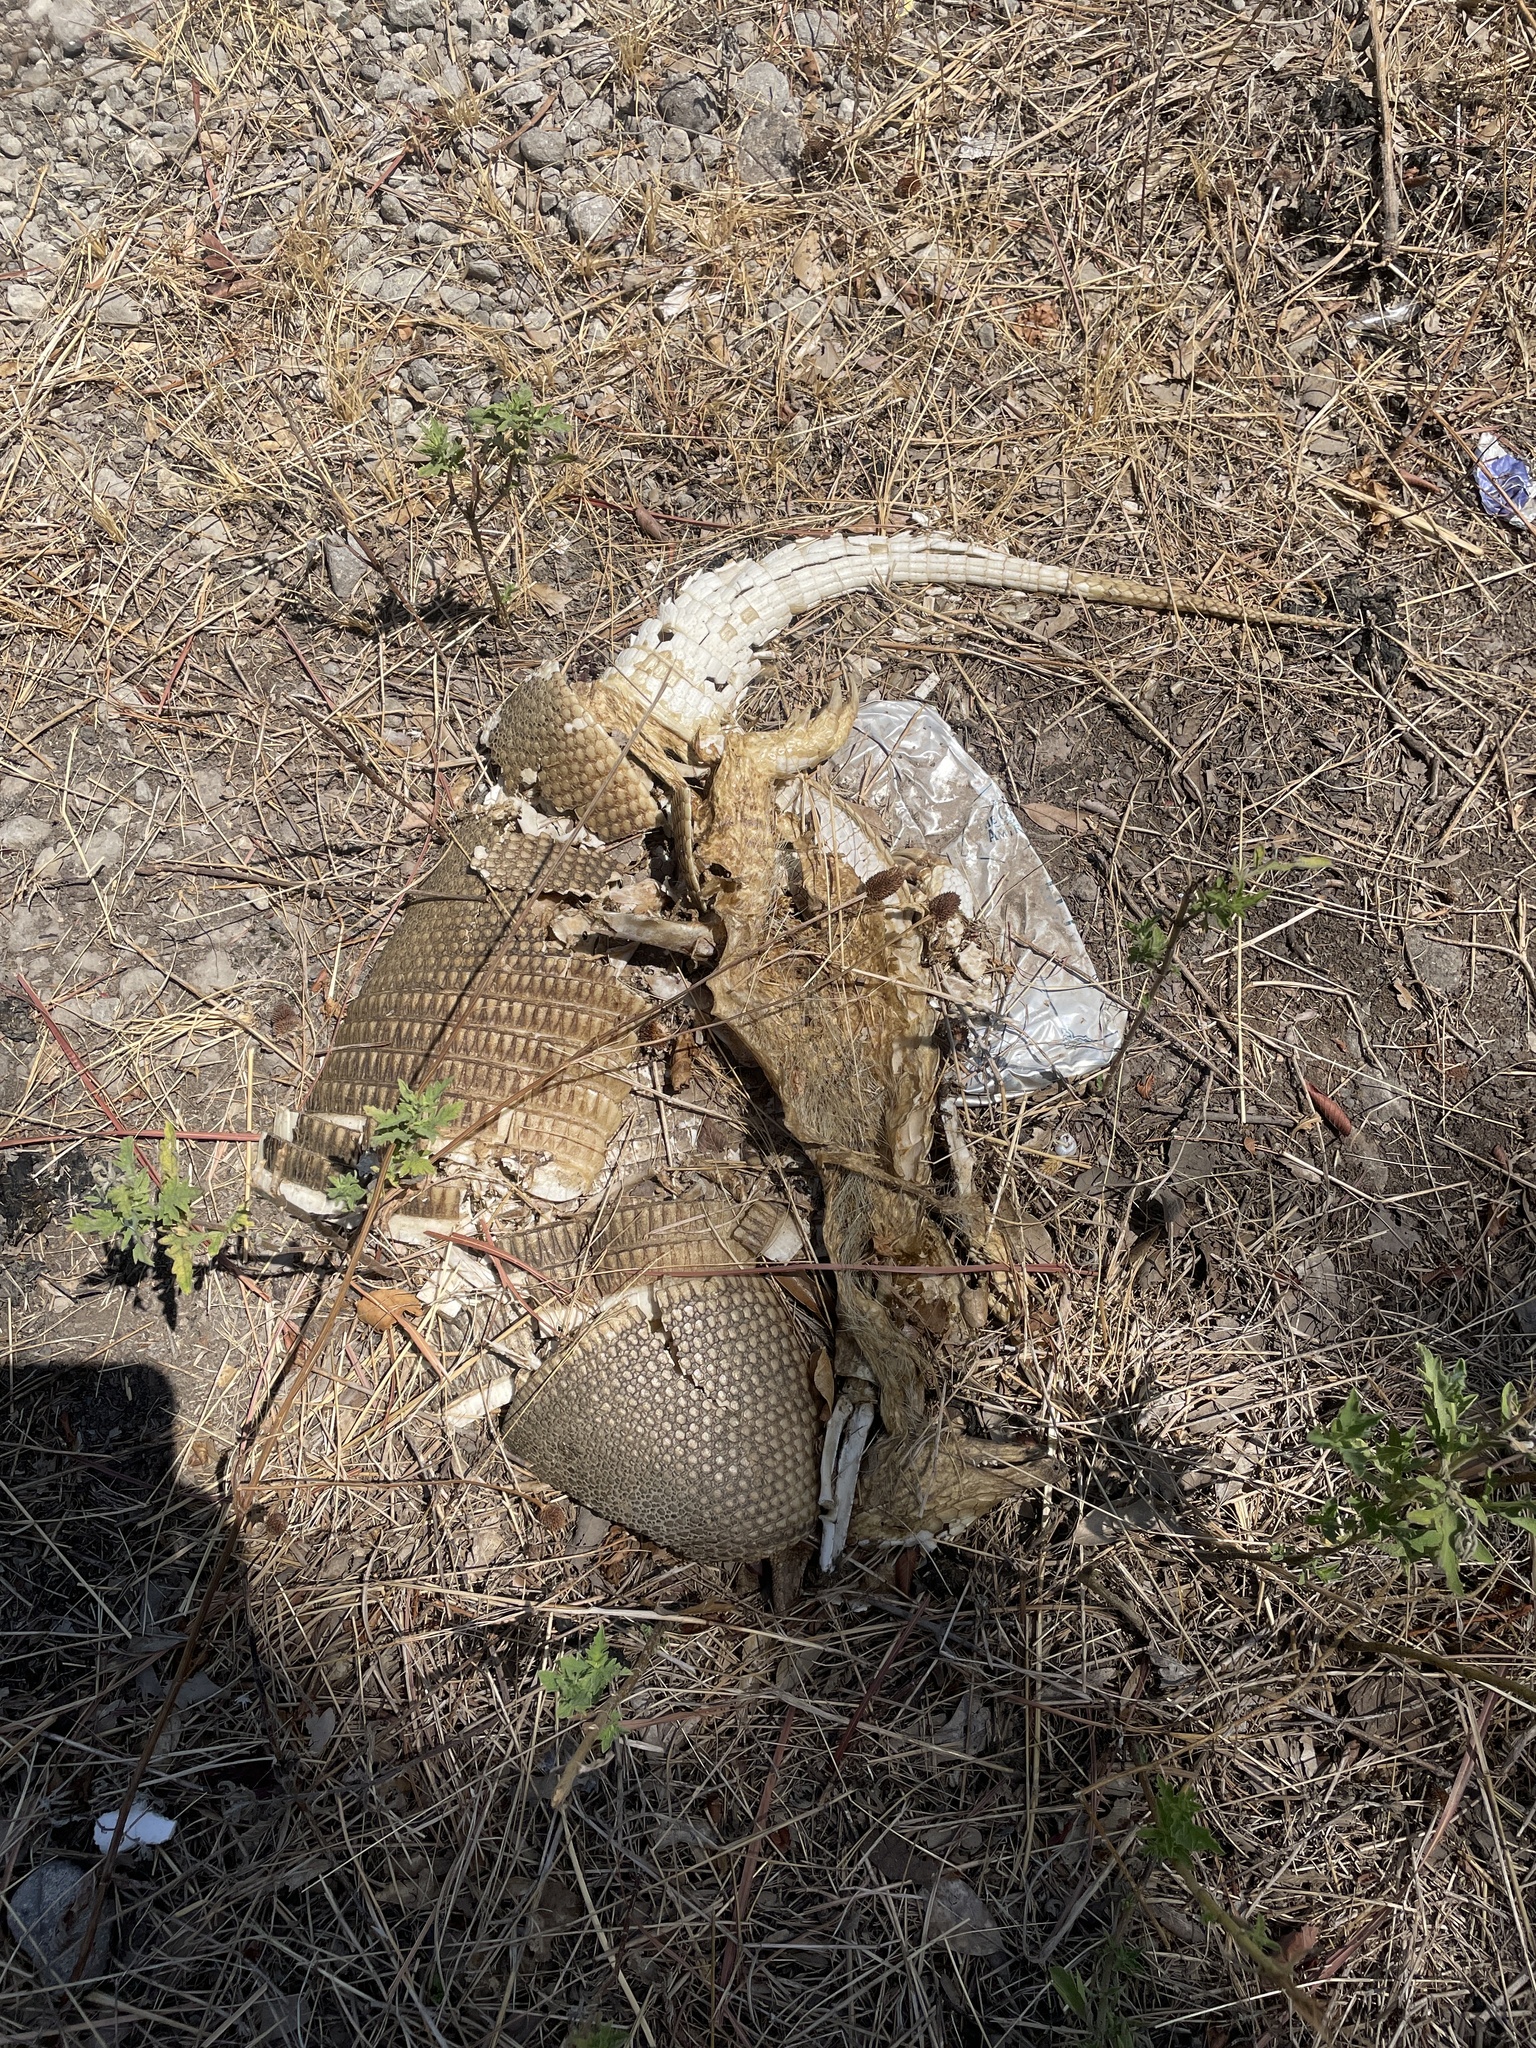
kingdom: Animalia
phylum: Chordata
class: Mammalia
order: Cingulata
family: Dasypodidae
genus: Dasypus
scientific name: Dasypus novemcinctus
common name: Nine-banded armadillo
